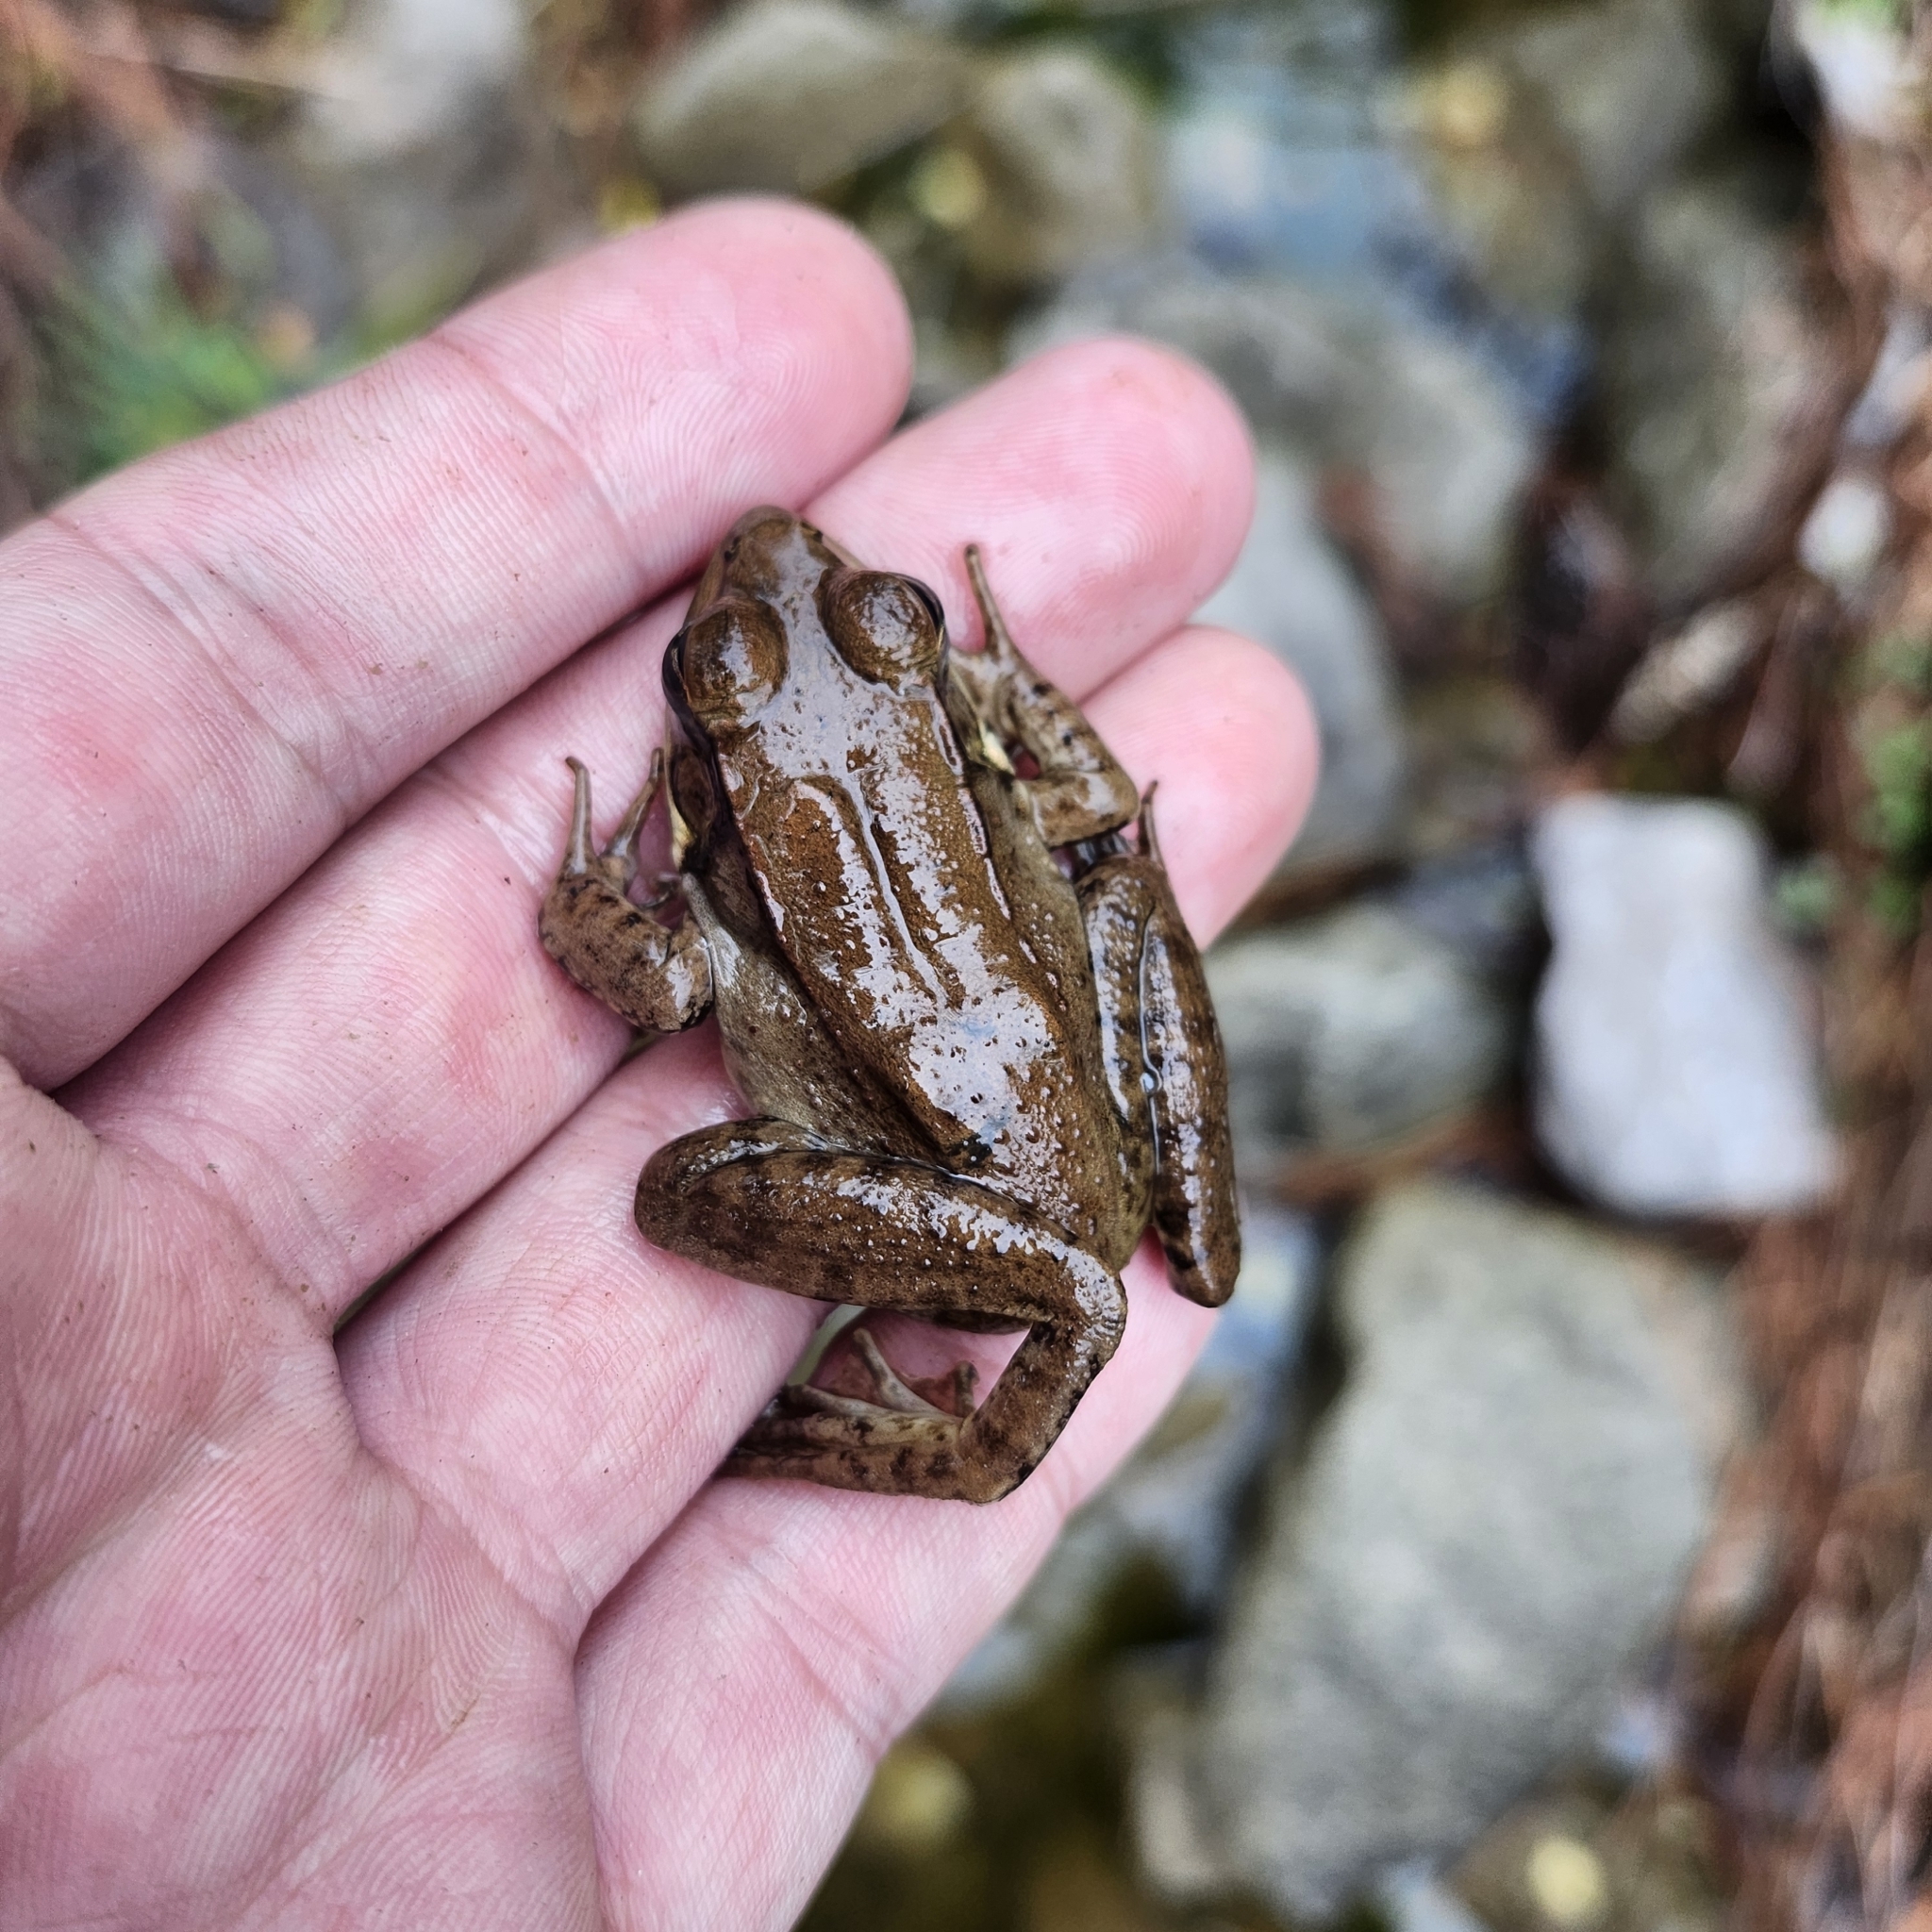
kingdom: Animalia
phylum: Chordata
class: Amphibia
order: Anura
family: Ranidae
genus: Lithobates
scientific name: Lithobates clamitans
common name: Green frog
